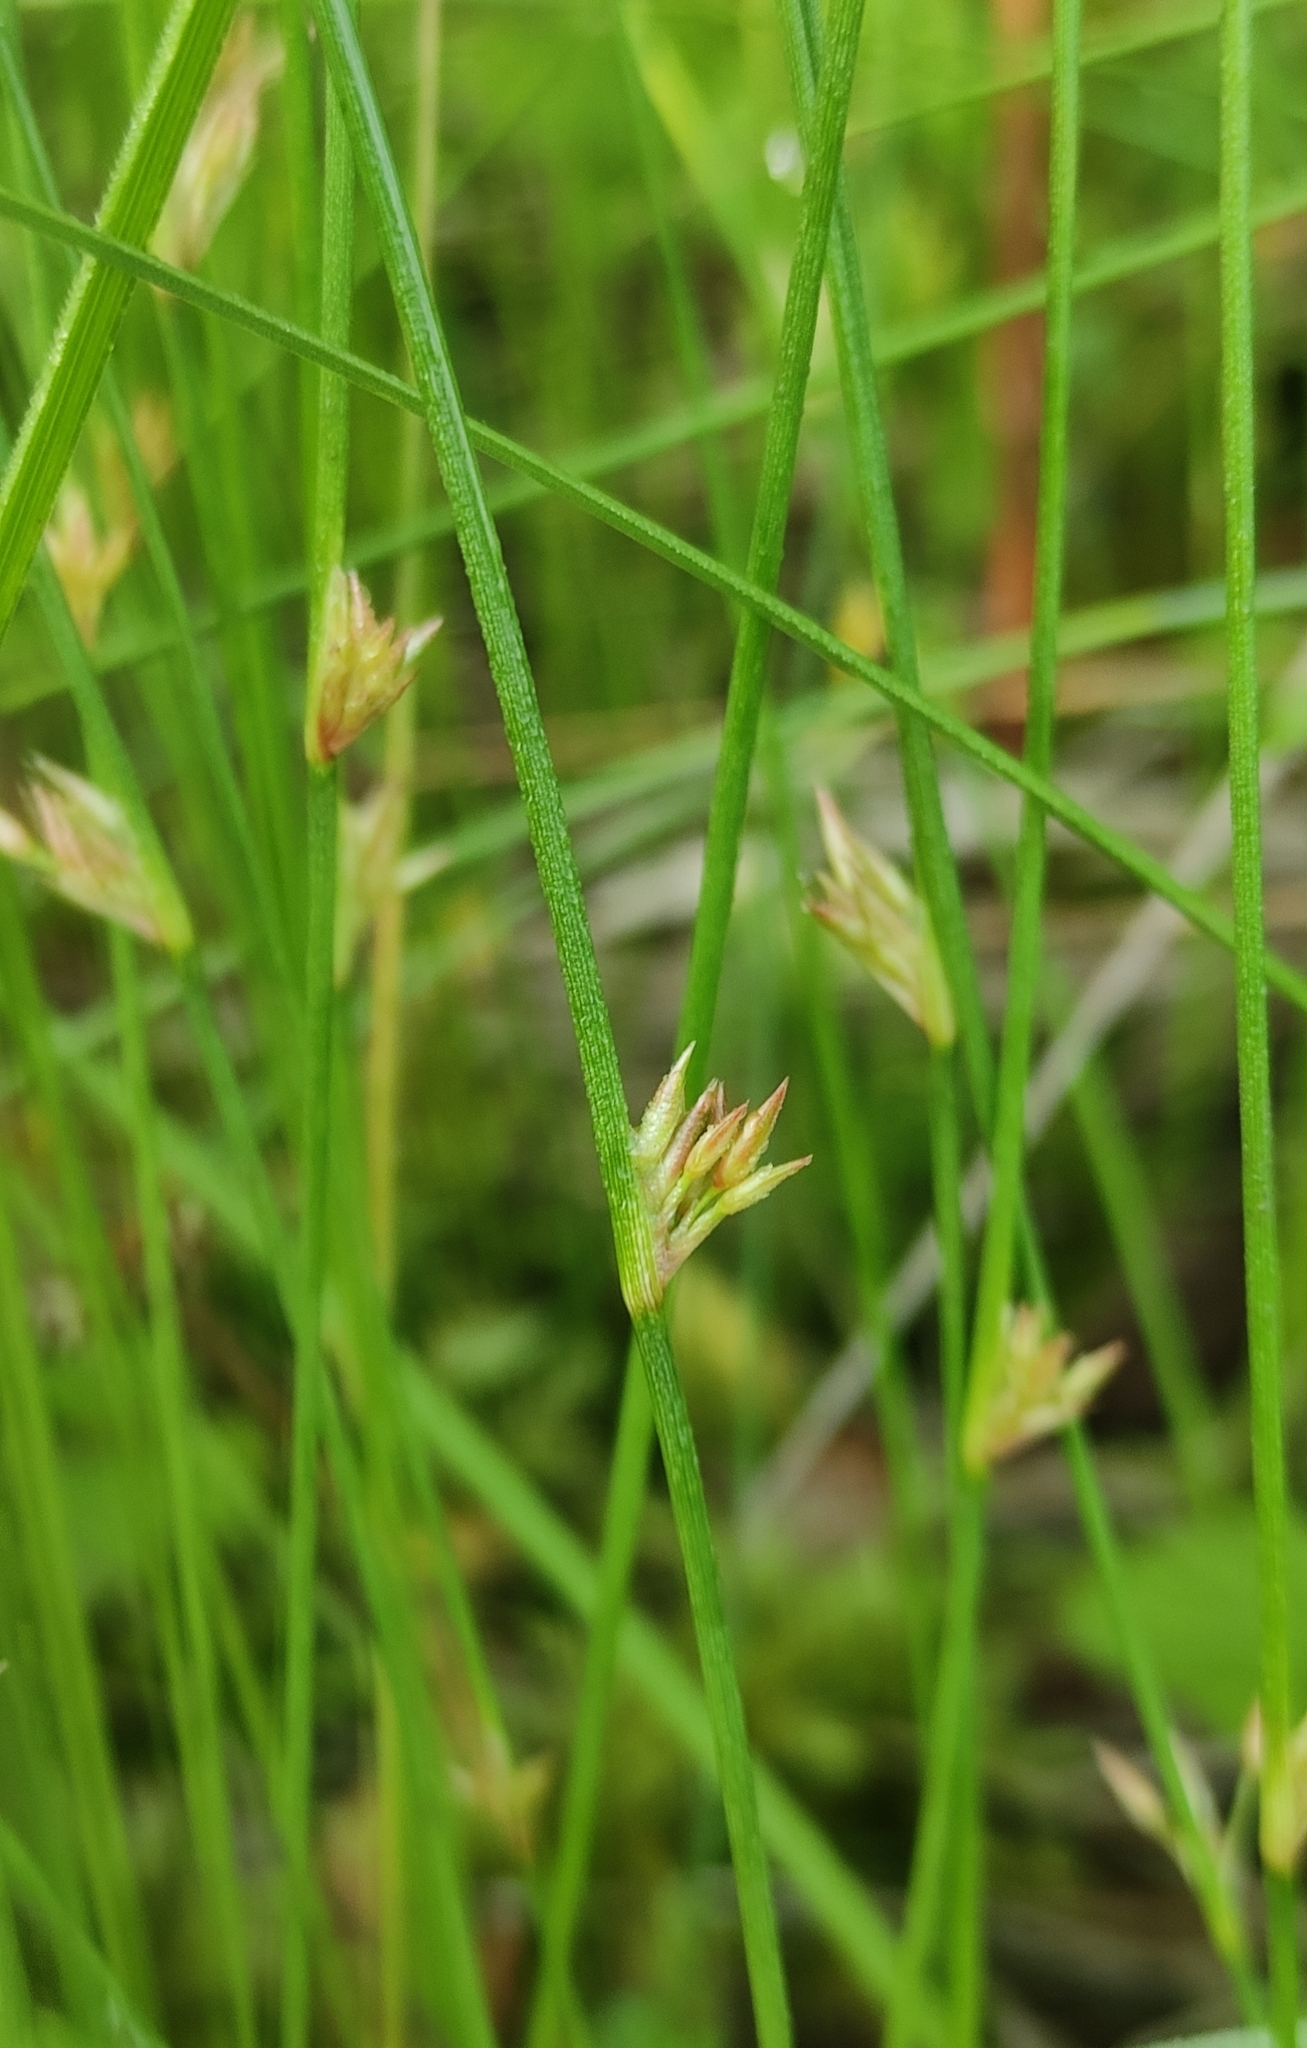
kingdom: Plantae
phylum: Tracheophyta
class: Liliopsida
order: Poales
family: Juncaceae
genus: Juncus
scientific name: Juncus filiformis
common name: Thread rush
